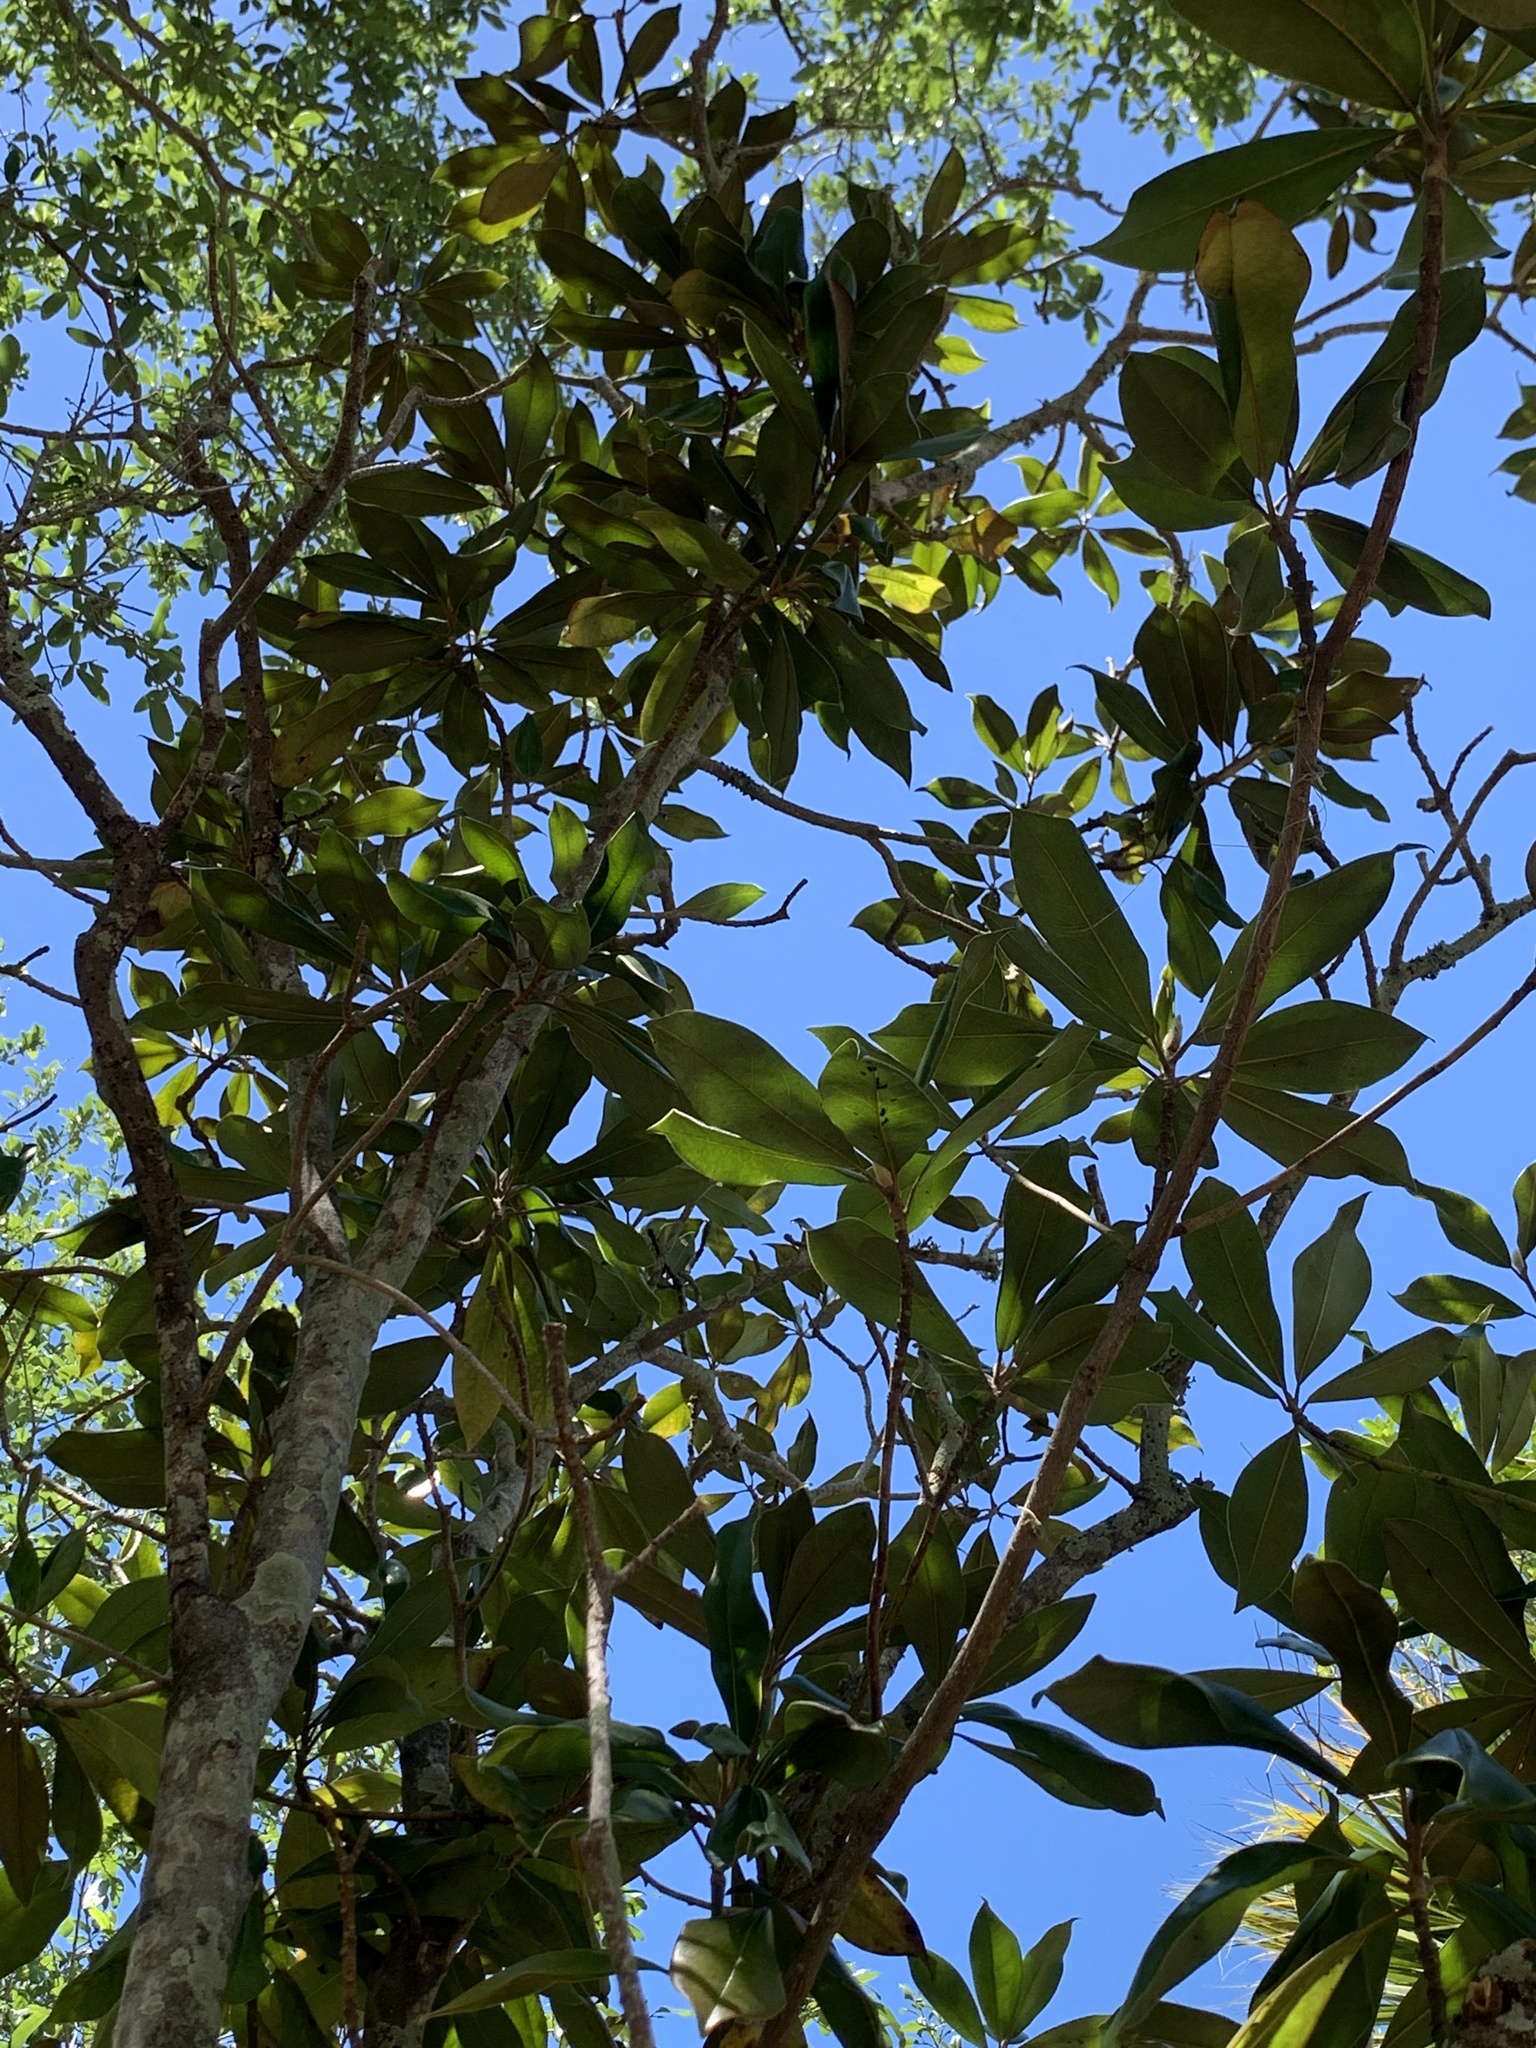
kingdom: Plantae
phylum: Tracheophyta
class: Magnoliopsida
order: Magnoliales
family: Magnoliaceae
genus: Magnolia
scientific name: Magnolia grandiflora
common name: Southern magnolia
